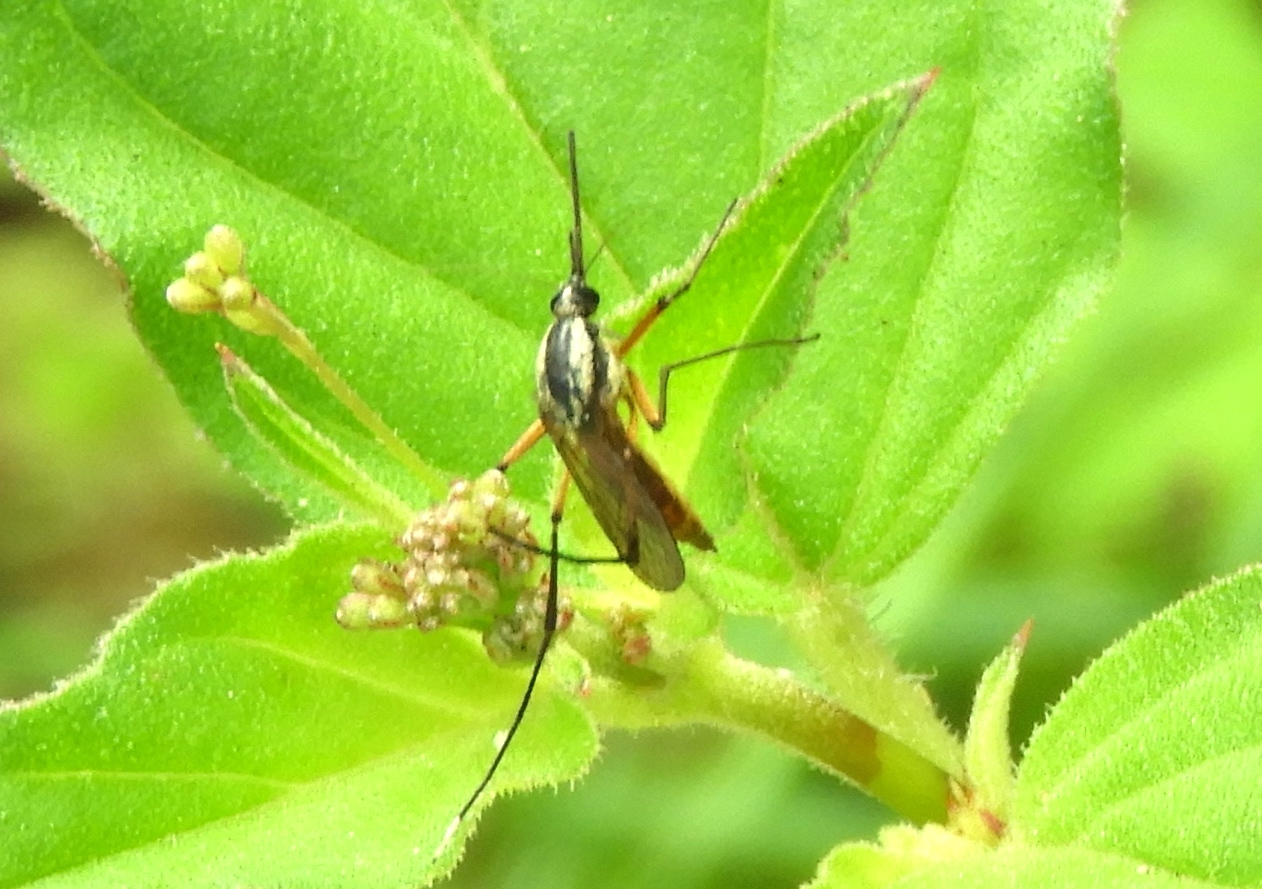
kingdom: Animalia
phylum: Arthropoda
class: Insecta
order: Diptera
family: Culicidae
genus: Janthinosoma
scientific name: Janthinosoma
